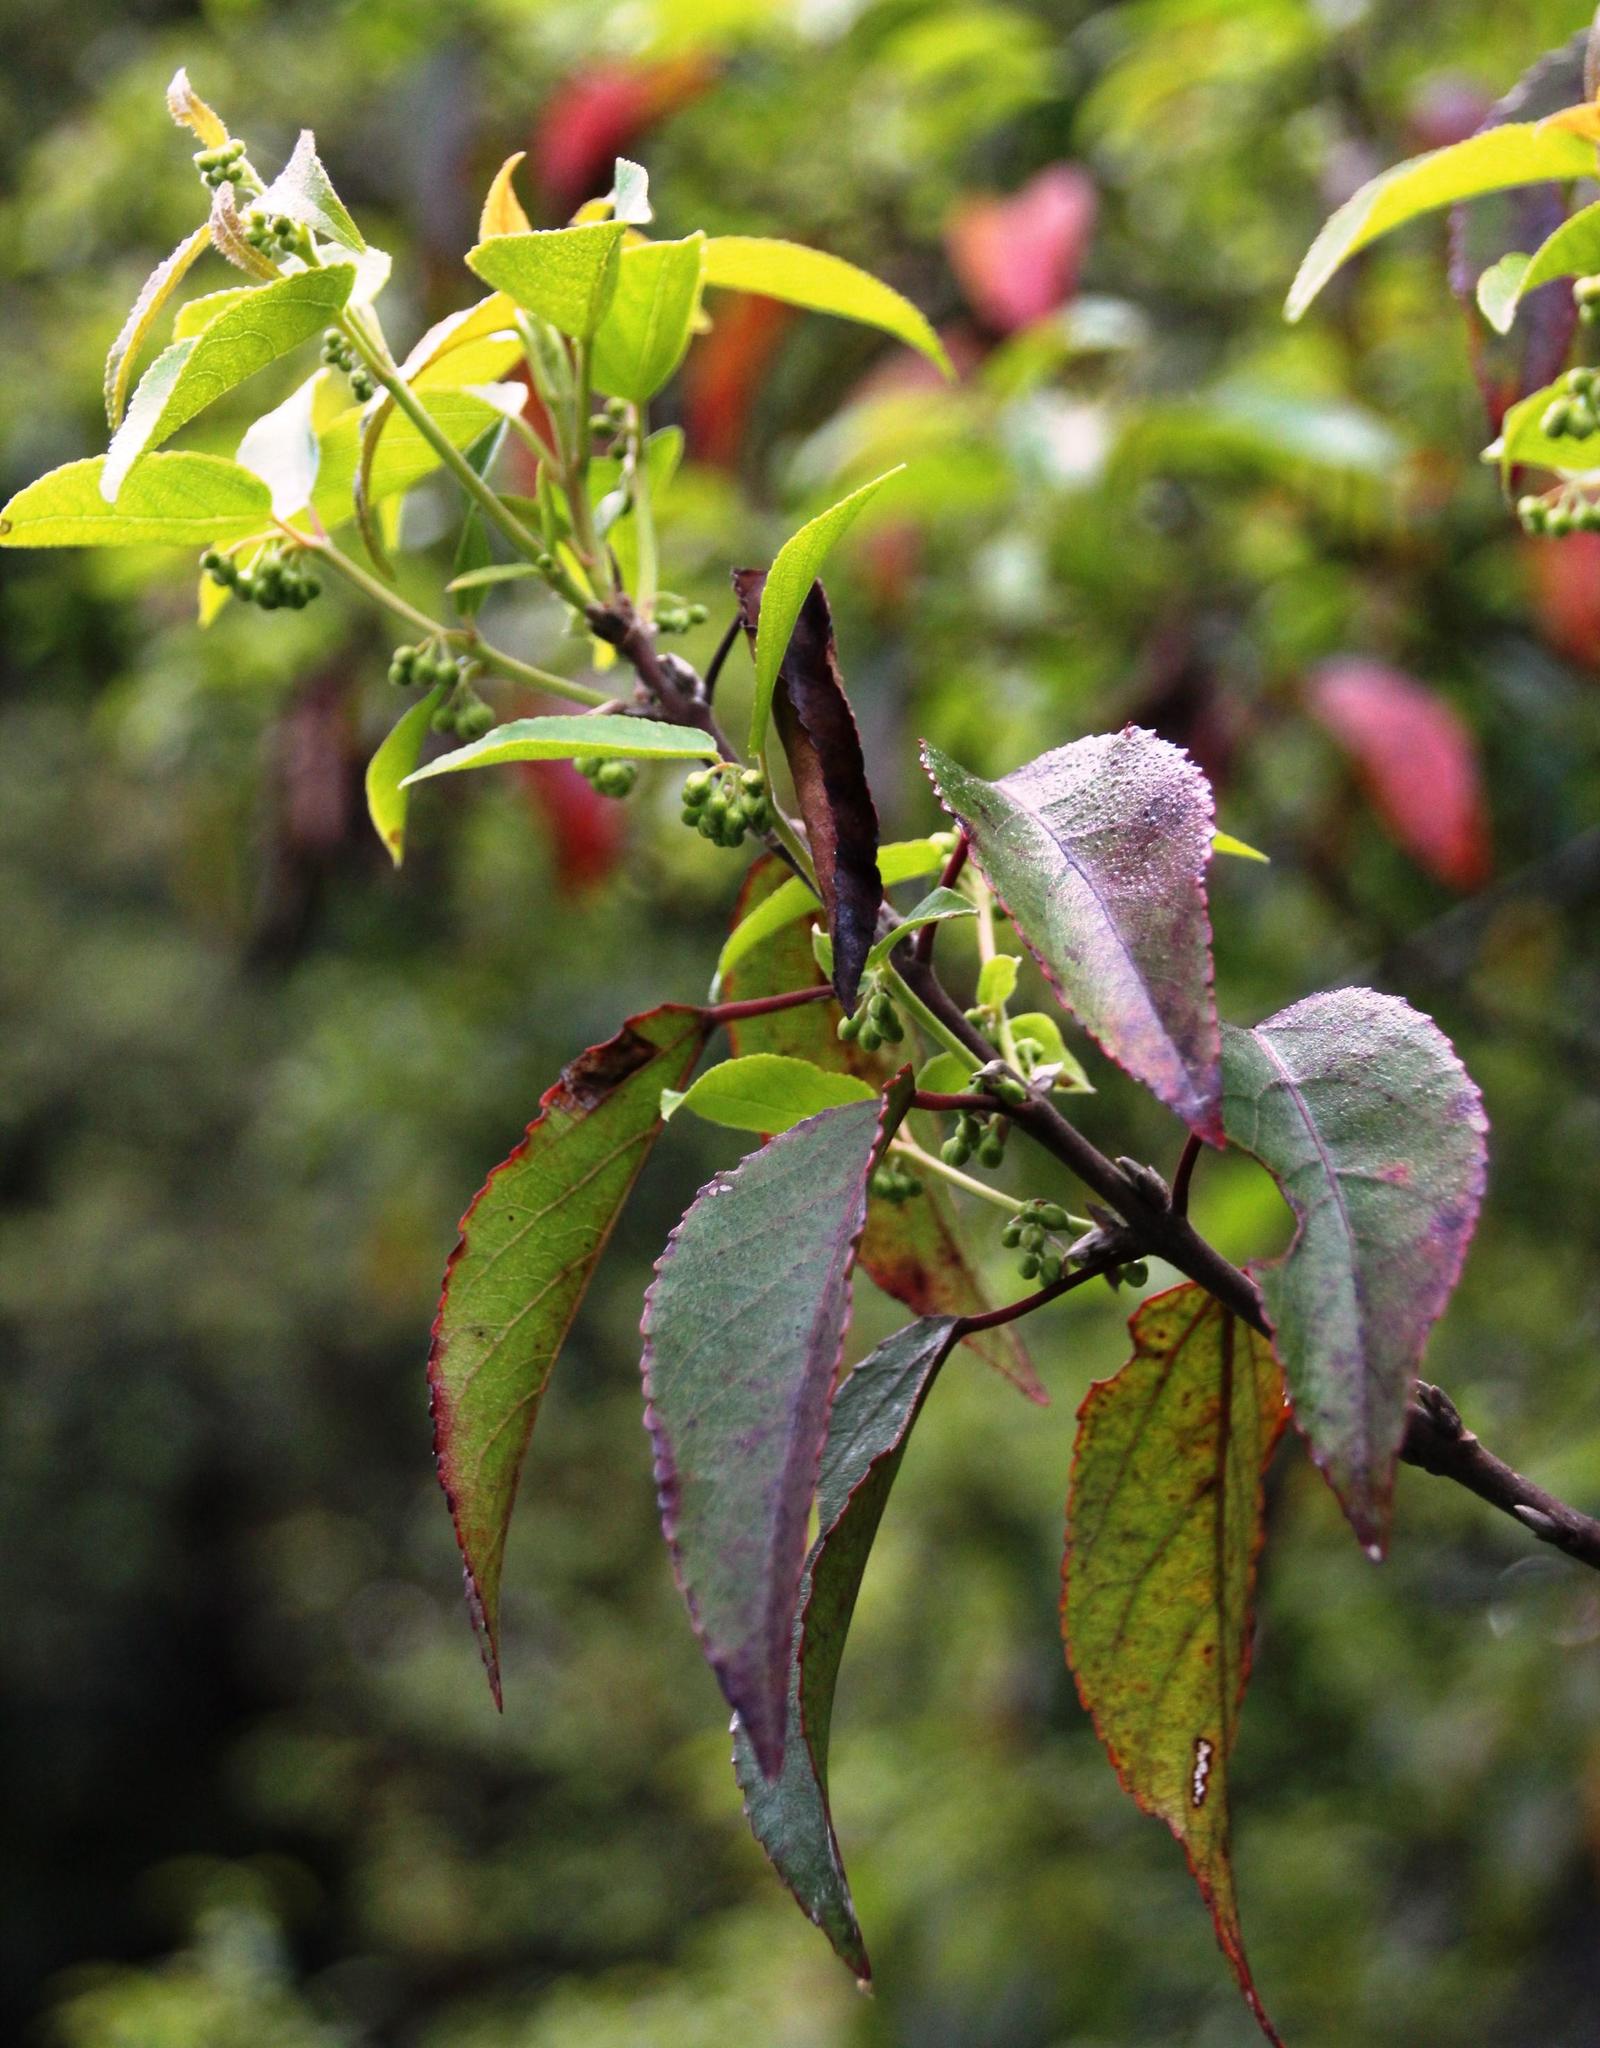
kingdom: Plantae
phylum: Tracheophyta
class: Magnoliopsida
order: Oxalidales
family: Elaeocarpaceae
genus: Aristotelia
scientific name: Aristotelia chilensis
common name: Maquei
